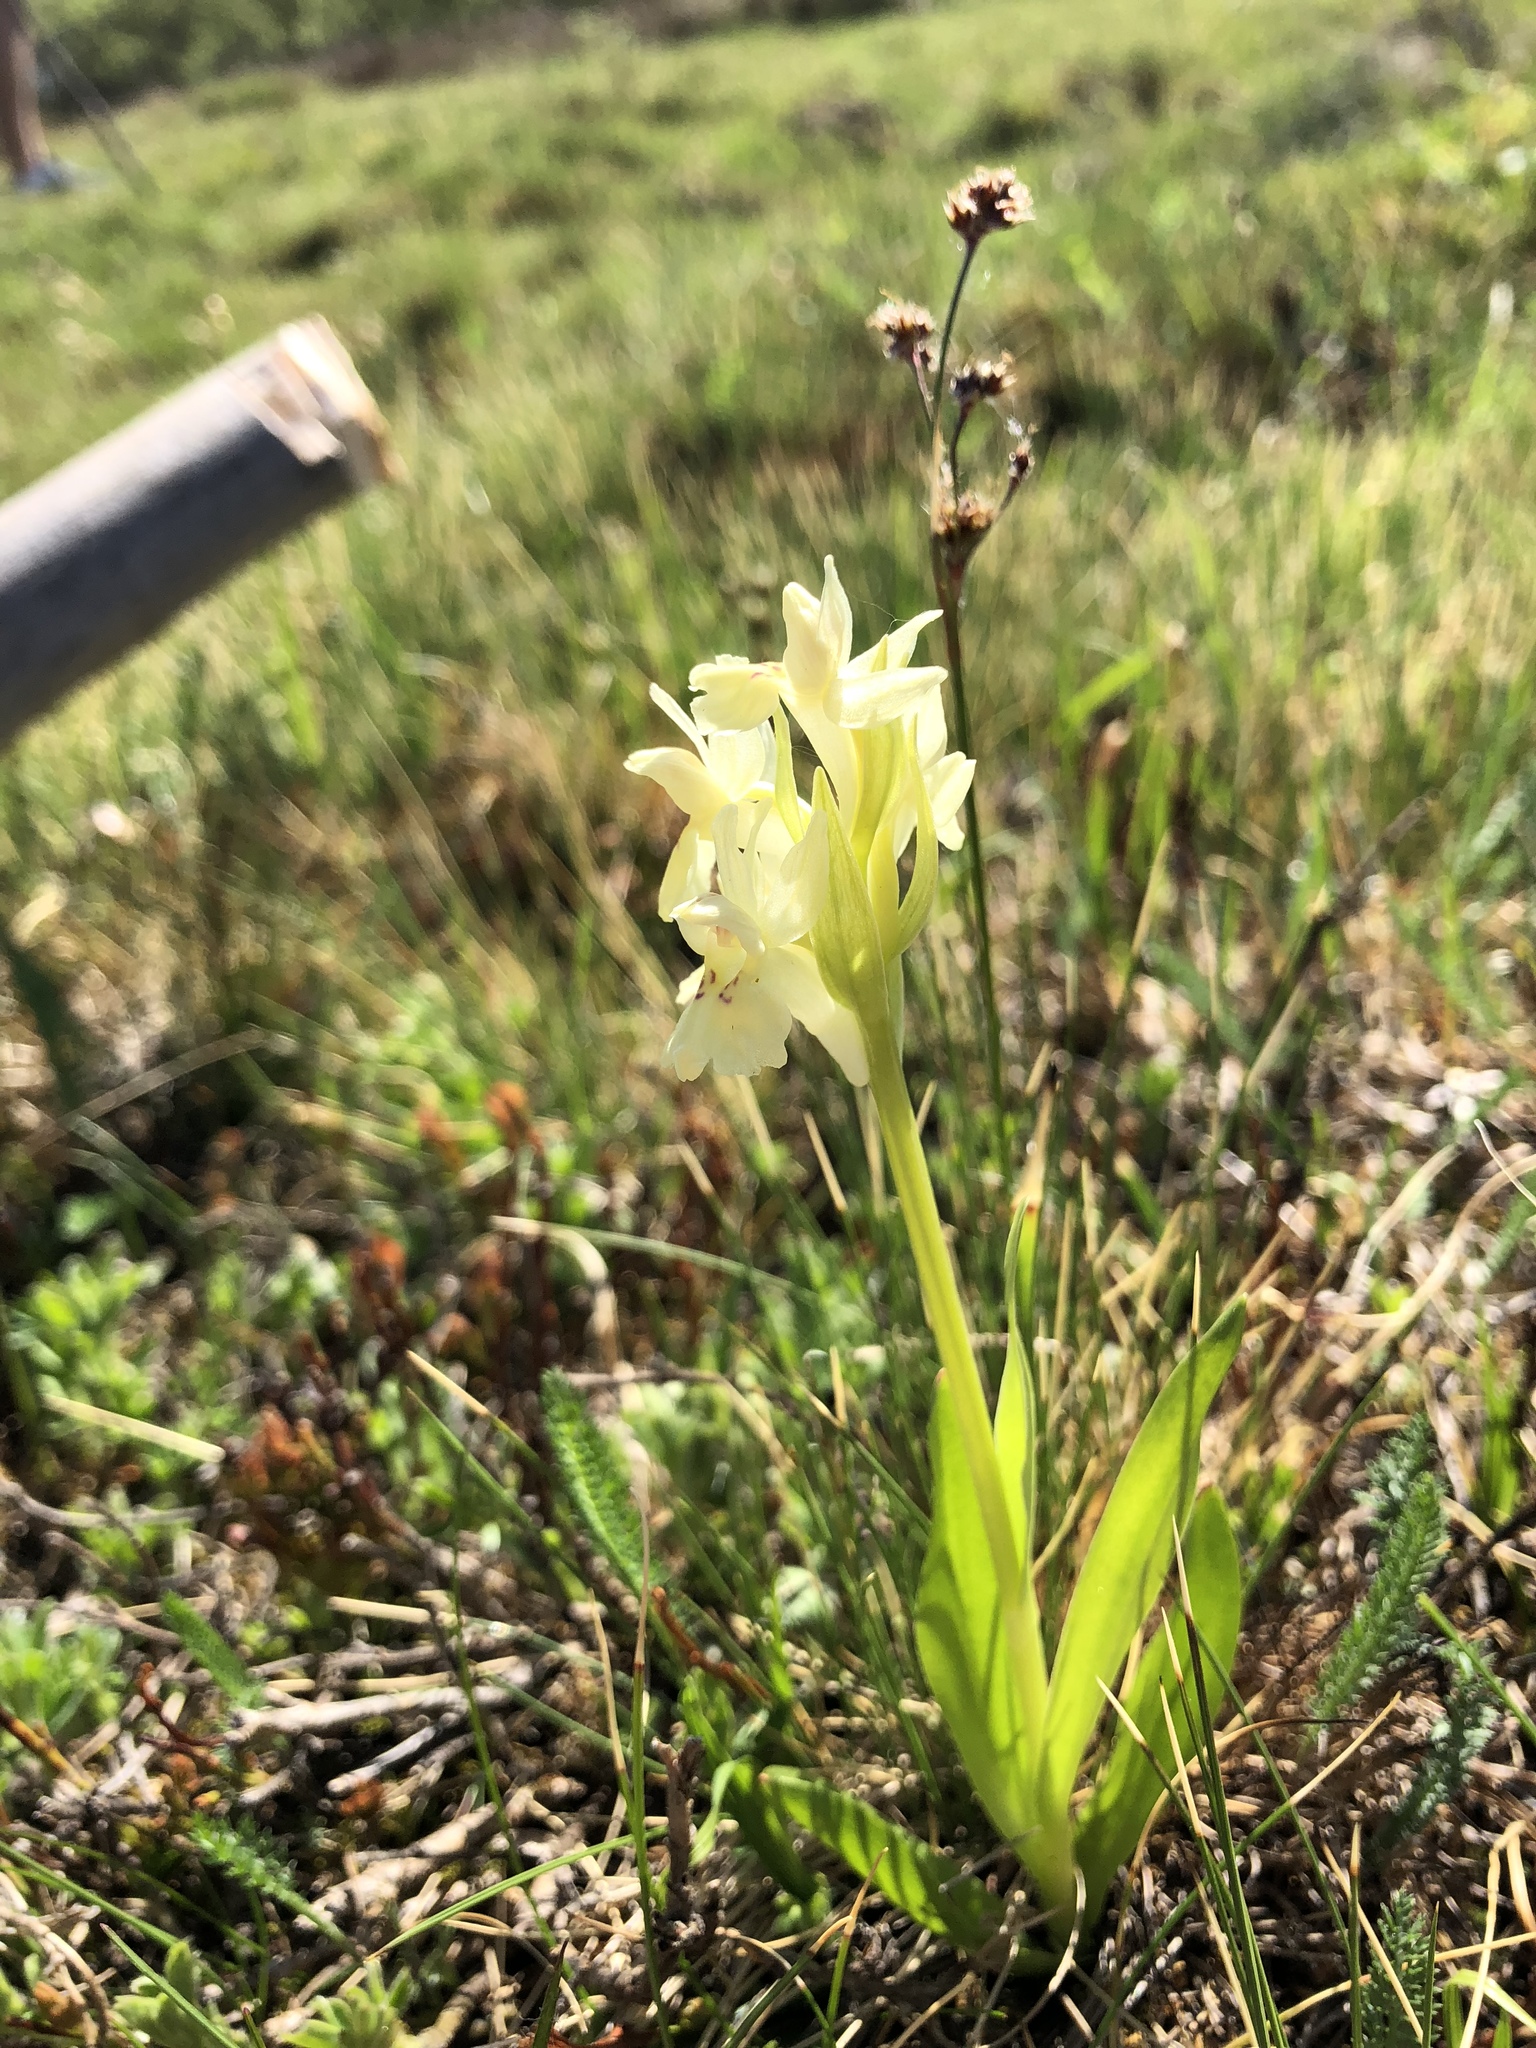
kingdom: Plantae
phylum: Tracheophyta
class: Liliopsida
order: Asparagales
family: Orchidaceae
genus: Dactylorhiza
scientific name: Dactylorhiza sambucina
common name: Elder-flowered orchid
